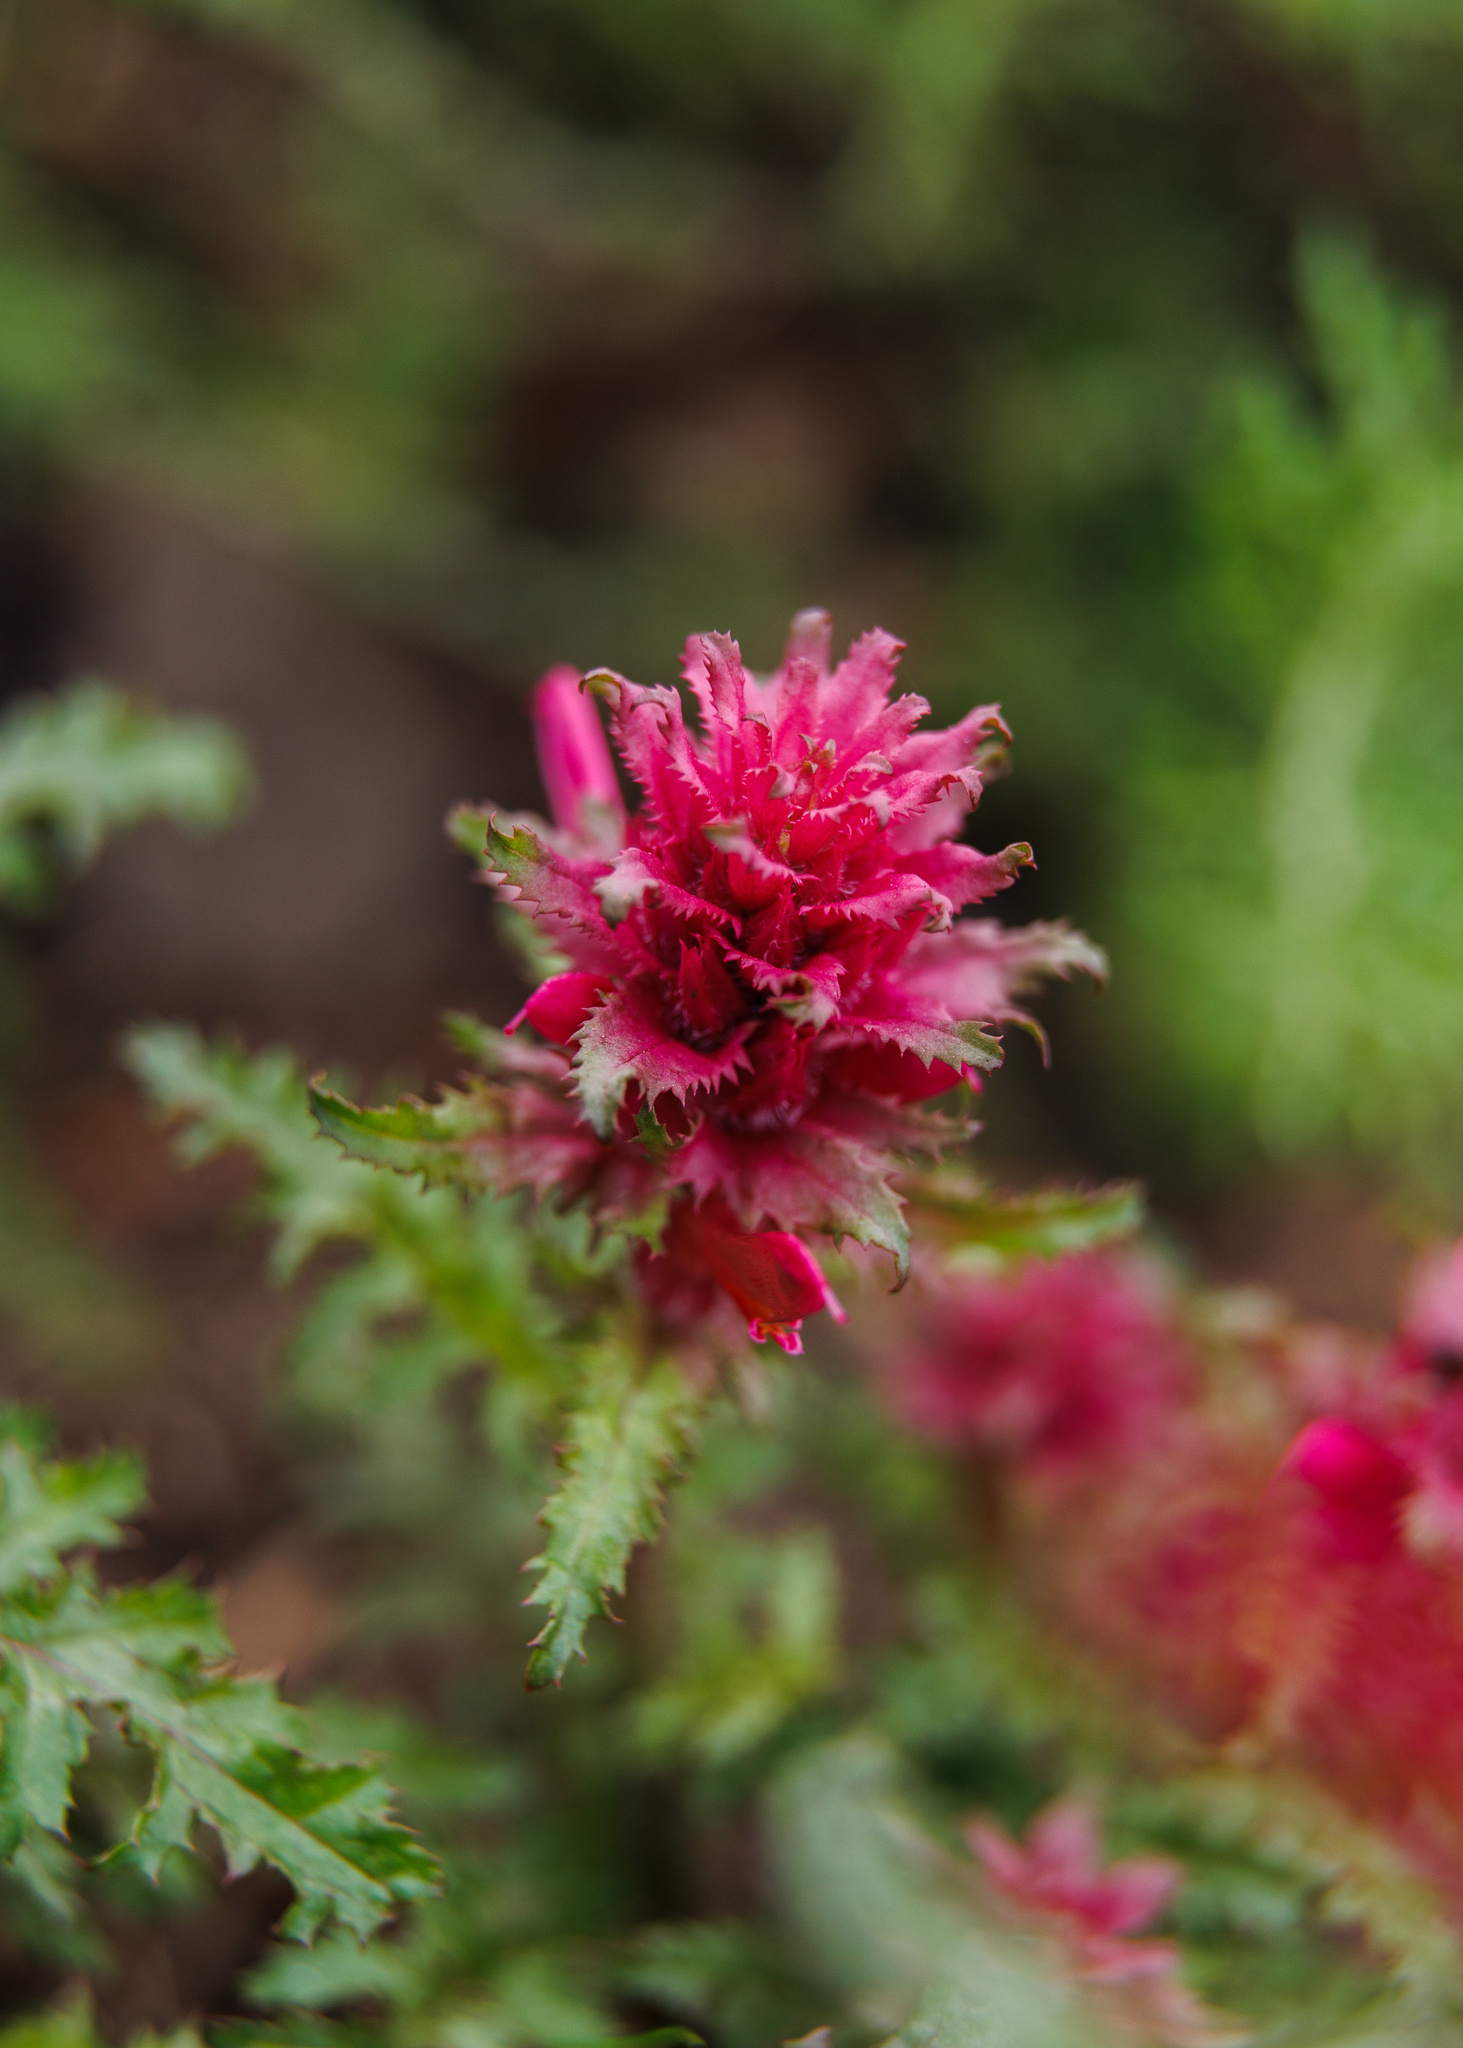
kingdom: Plantae
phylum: Tracheophyta
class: Magnoliopsida
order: Lamiales
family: Orobanchaceae
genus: Pedicularis
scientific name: Pedicularis densiflora
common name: Indian warrior
